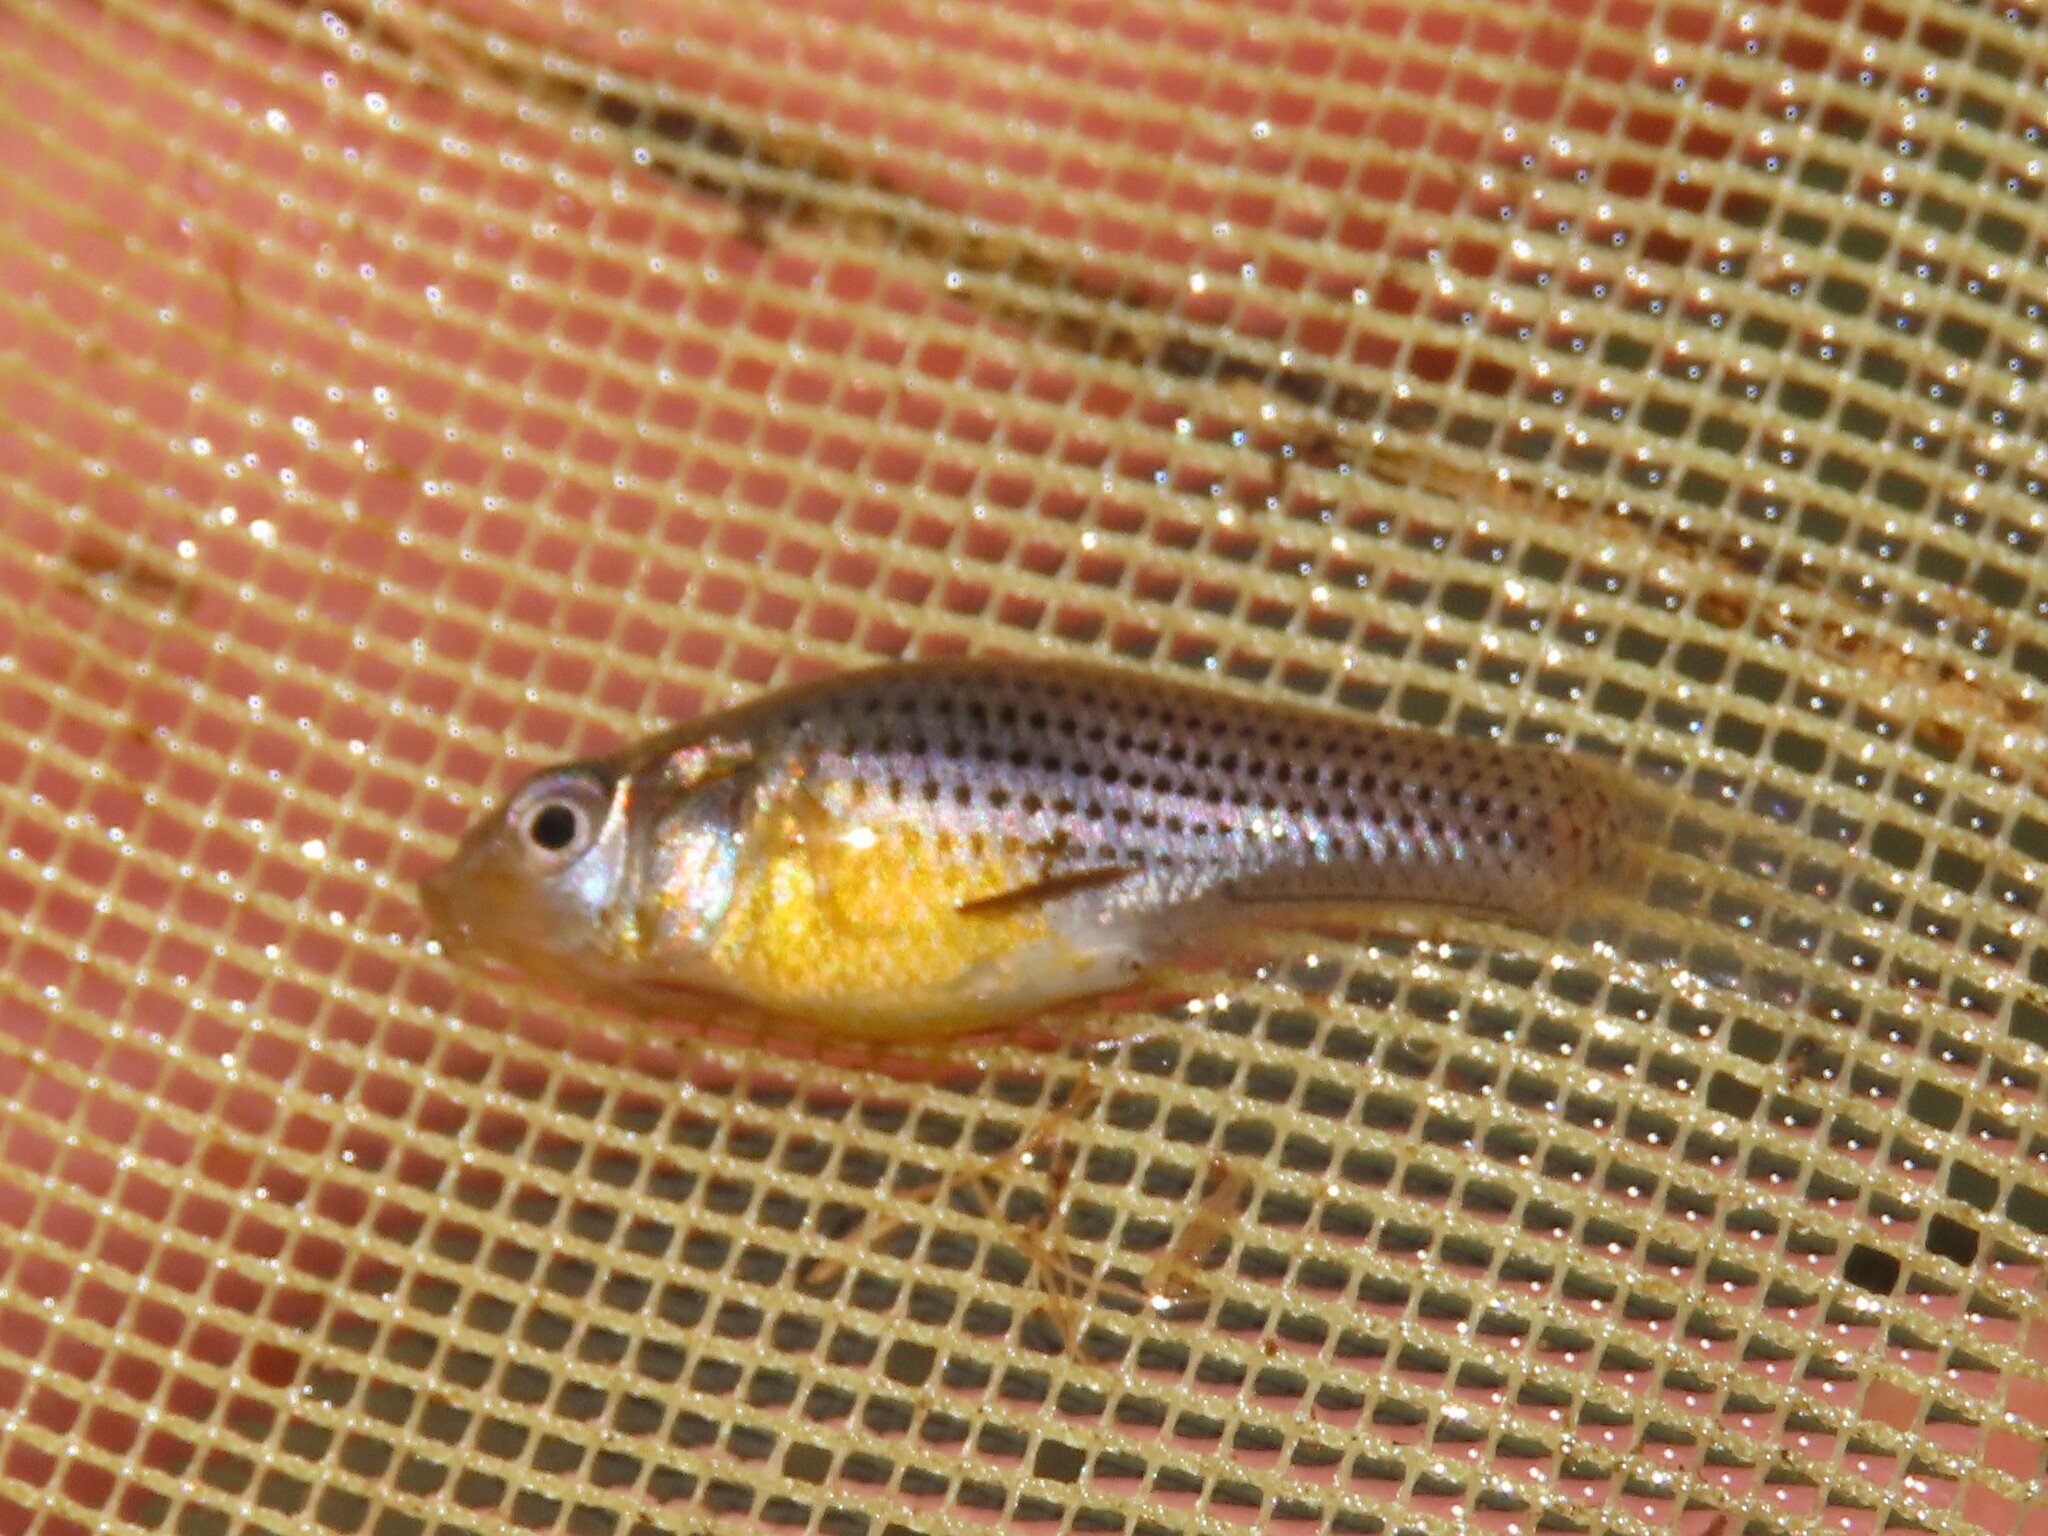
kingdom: Animalia
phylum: Chordata
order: Cyprinodontiformes
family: Poeciliidae
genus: Poecilia
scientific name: Poecilia latipinna
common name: Sailfin molly
